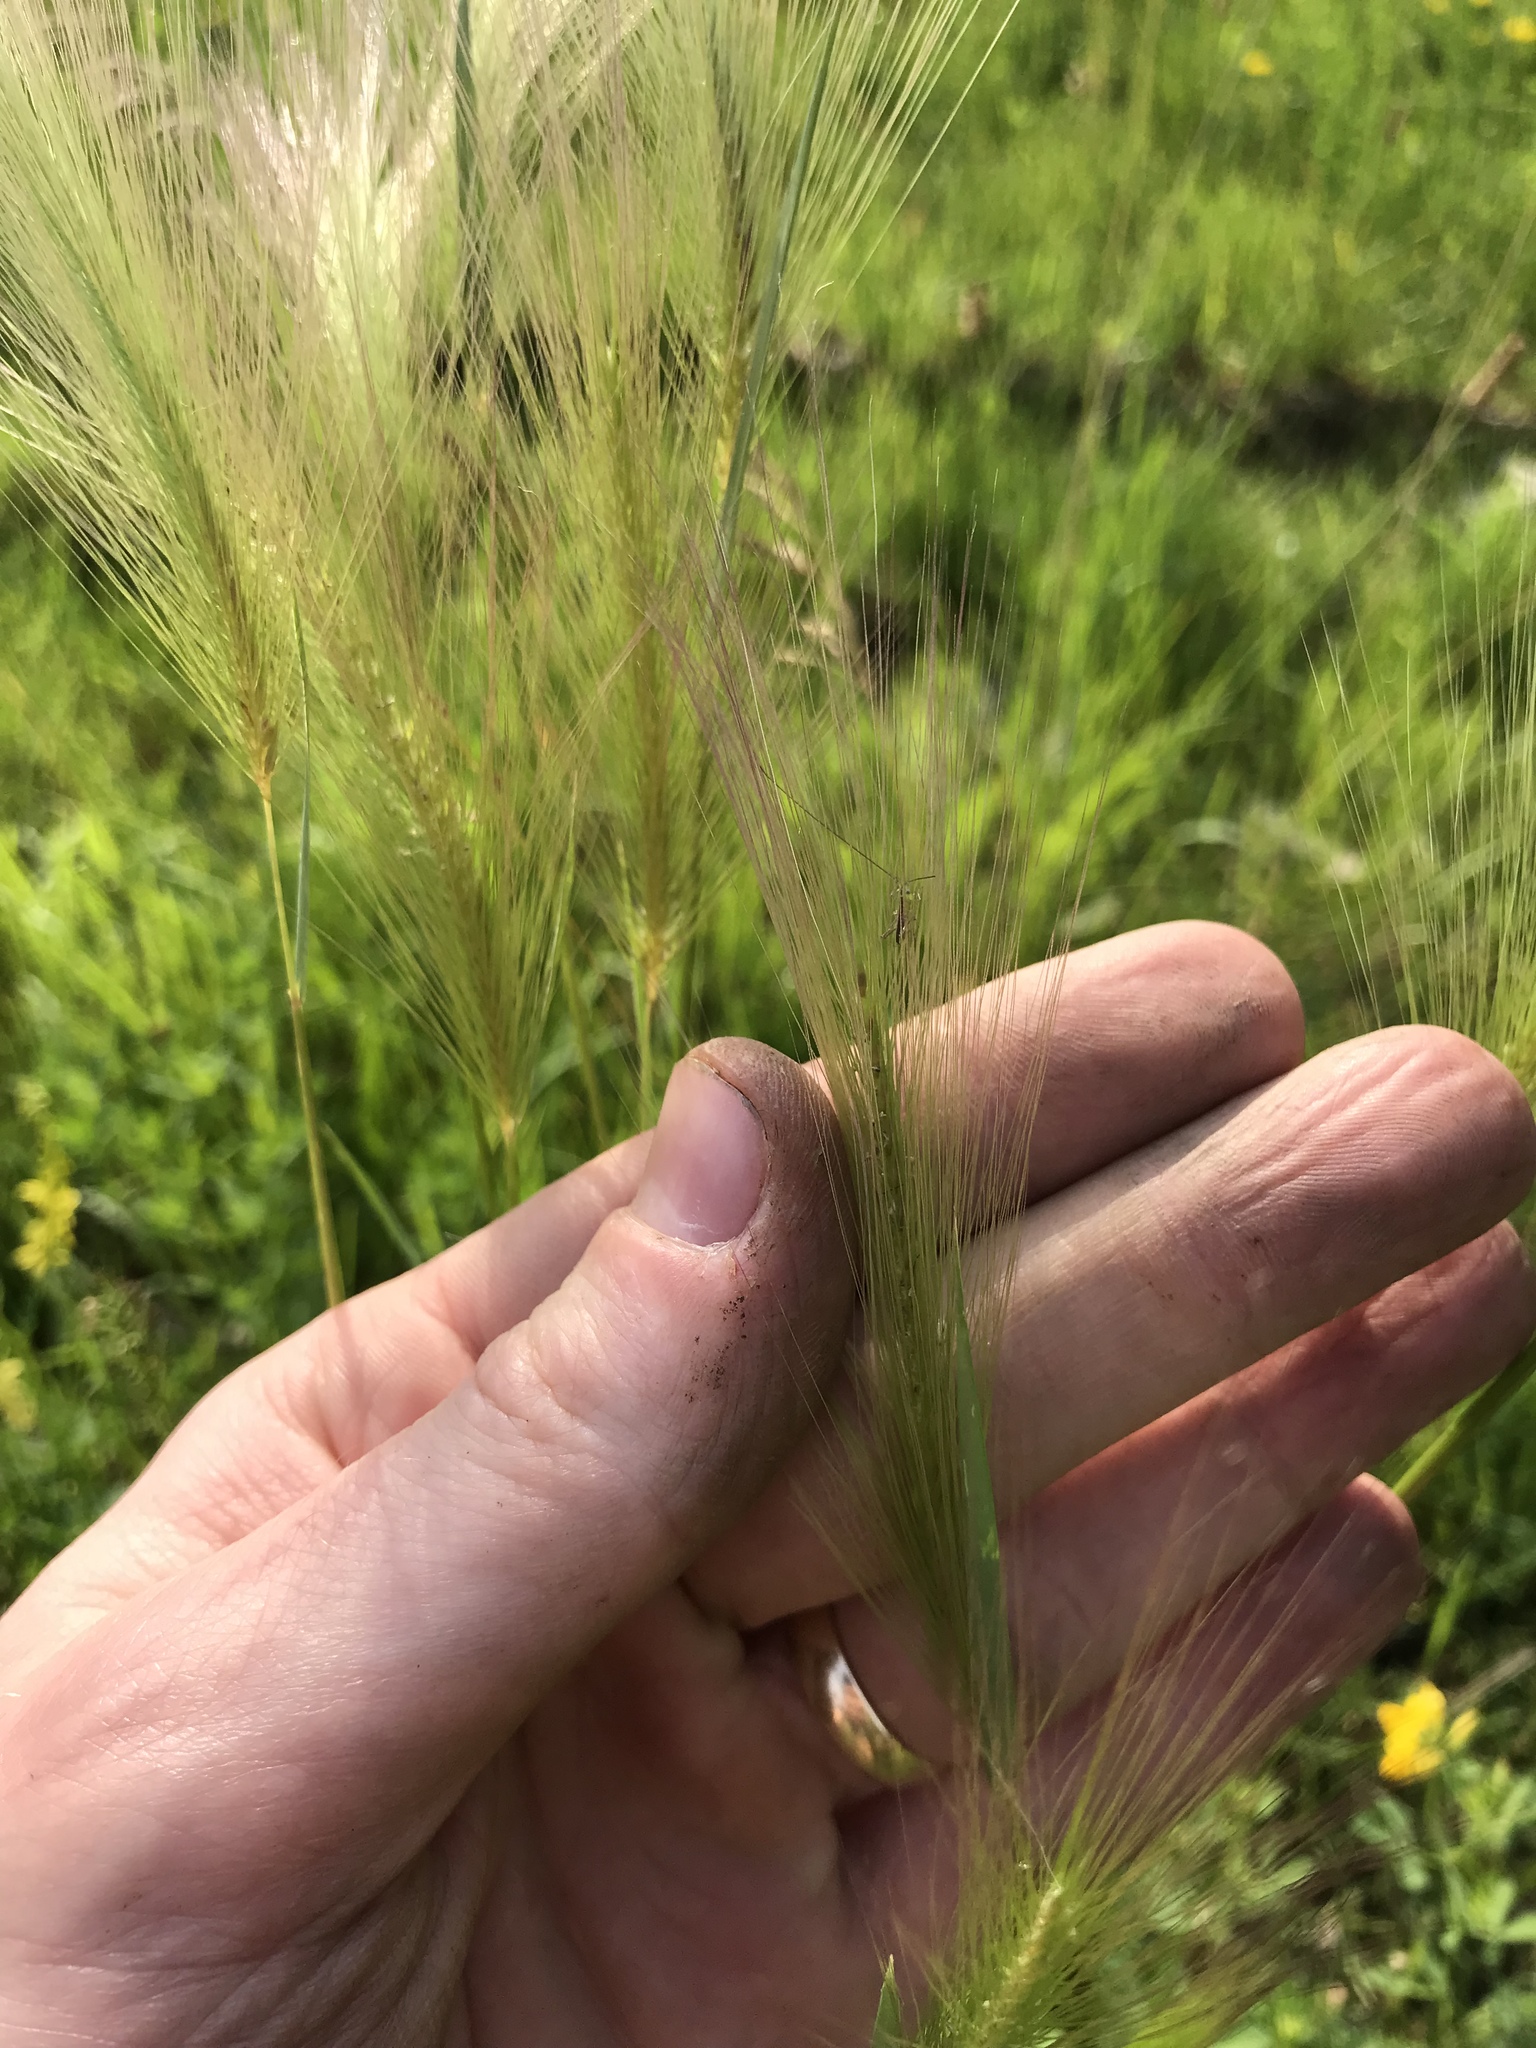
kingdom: Plantae
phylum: Tracheophyta
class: Liliopsida
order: Poales
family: Poaceae
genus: Hordeum
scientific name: Hordeum jubatum
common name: Foxtail barley
